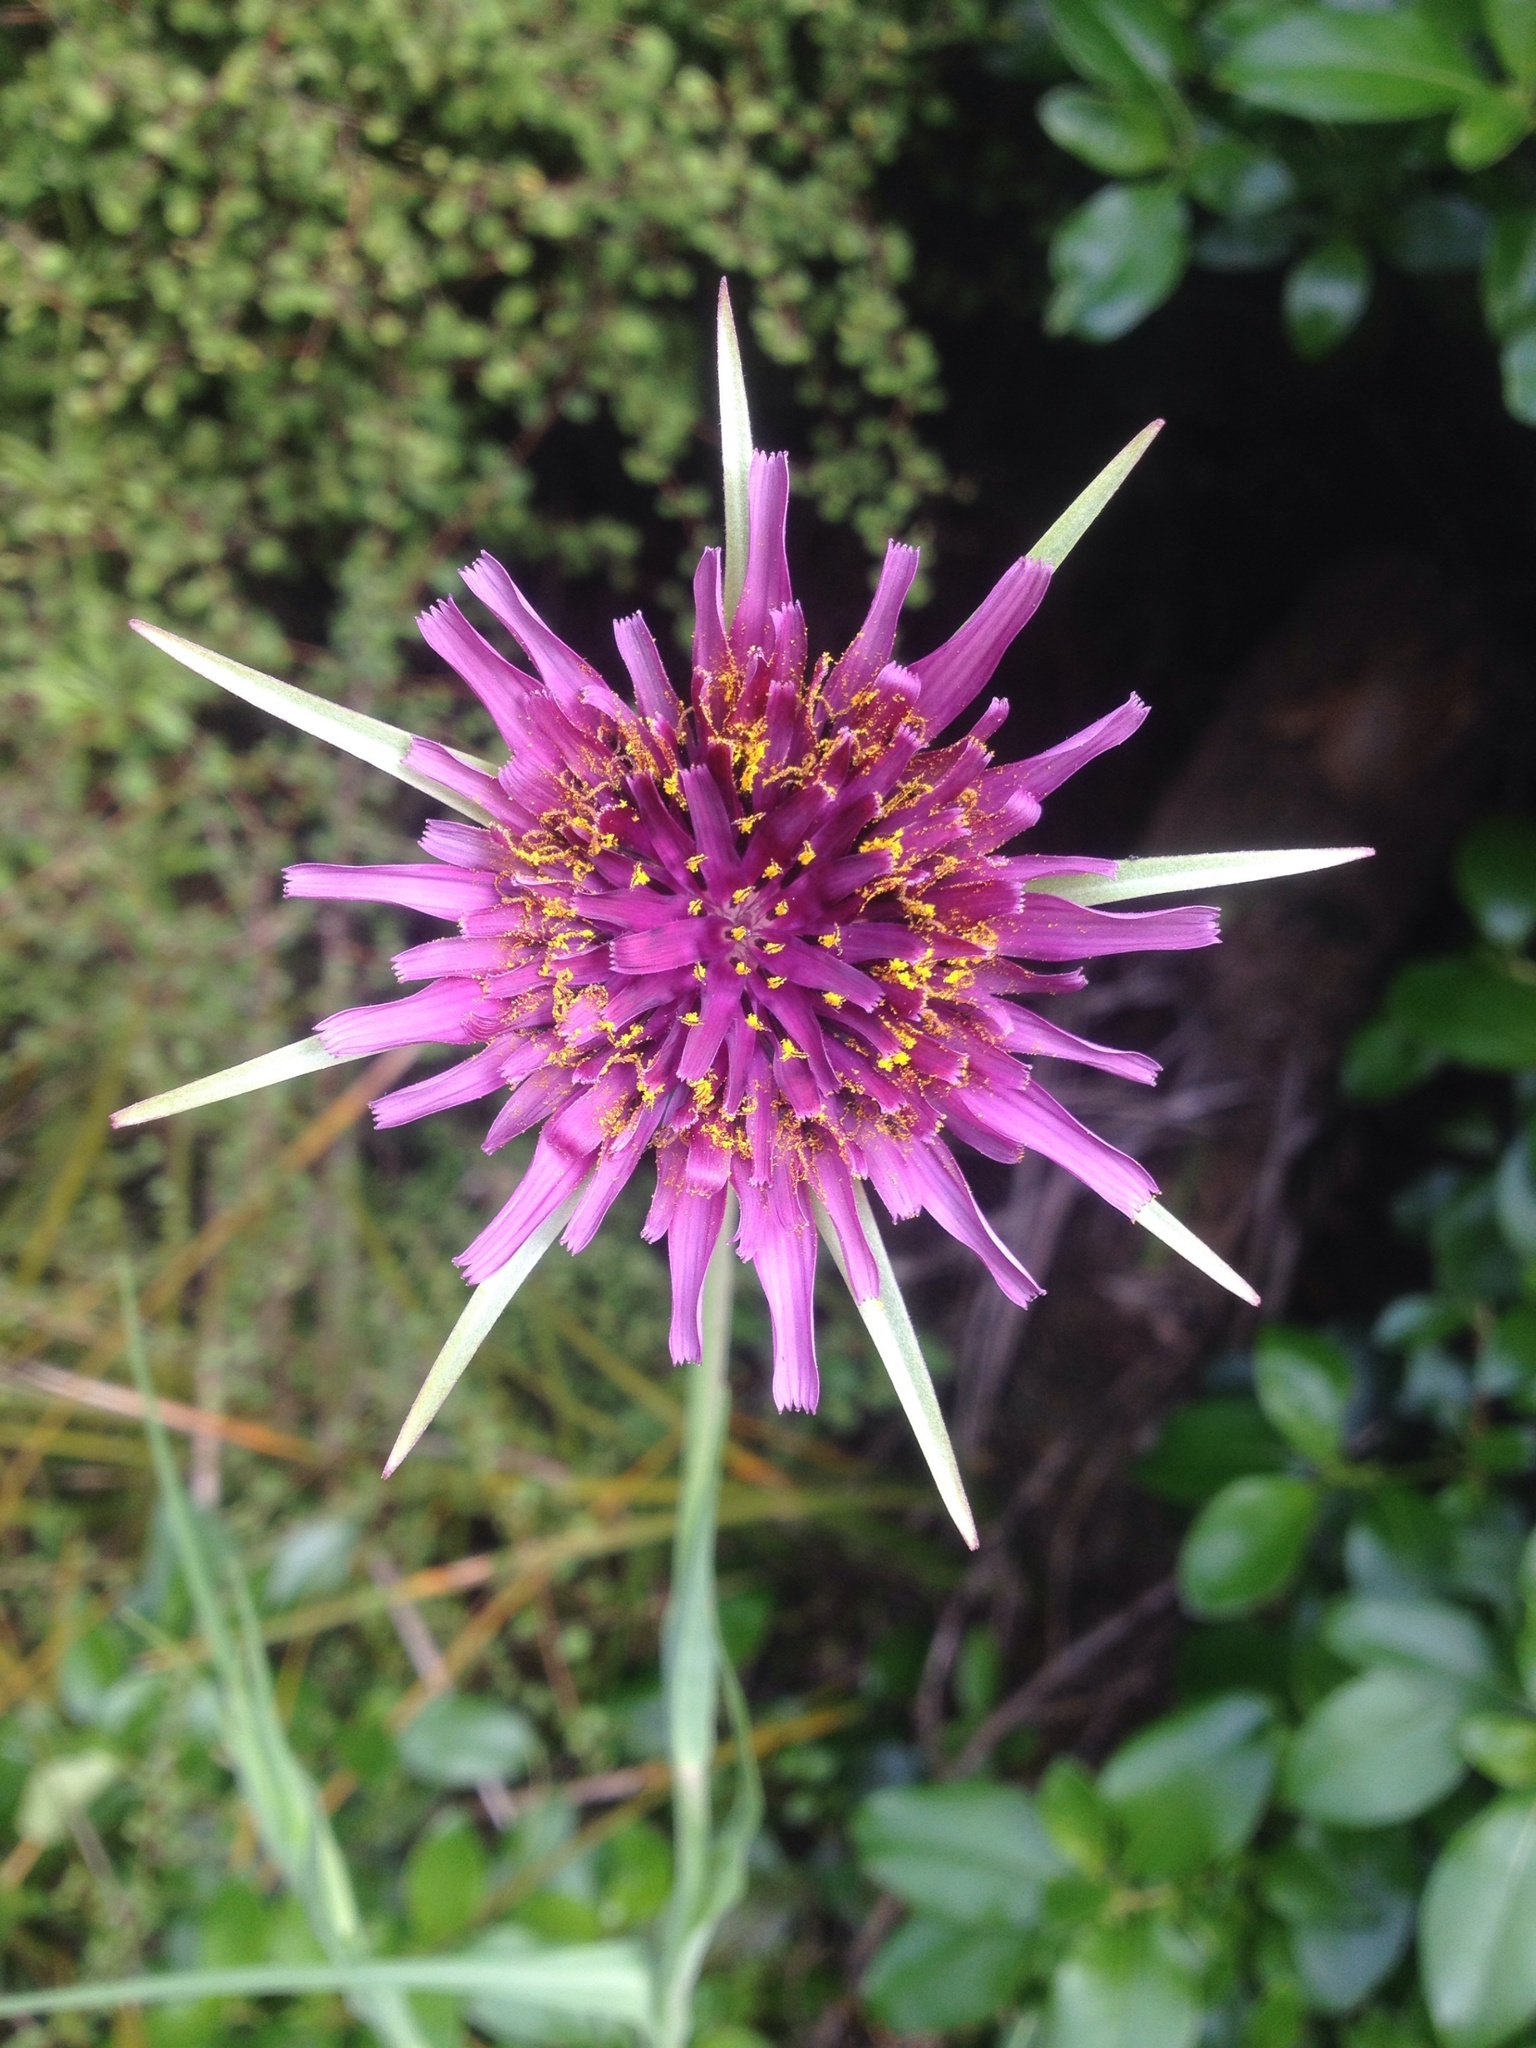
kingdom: Plantae
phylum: Tracheophyta
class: Magnoliopsida
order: Asterales
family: Asteraceae
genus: Tragopogon
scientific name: Tragopogon porrifolius
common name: Salsify
